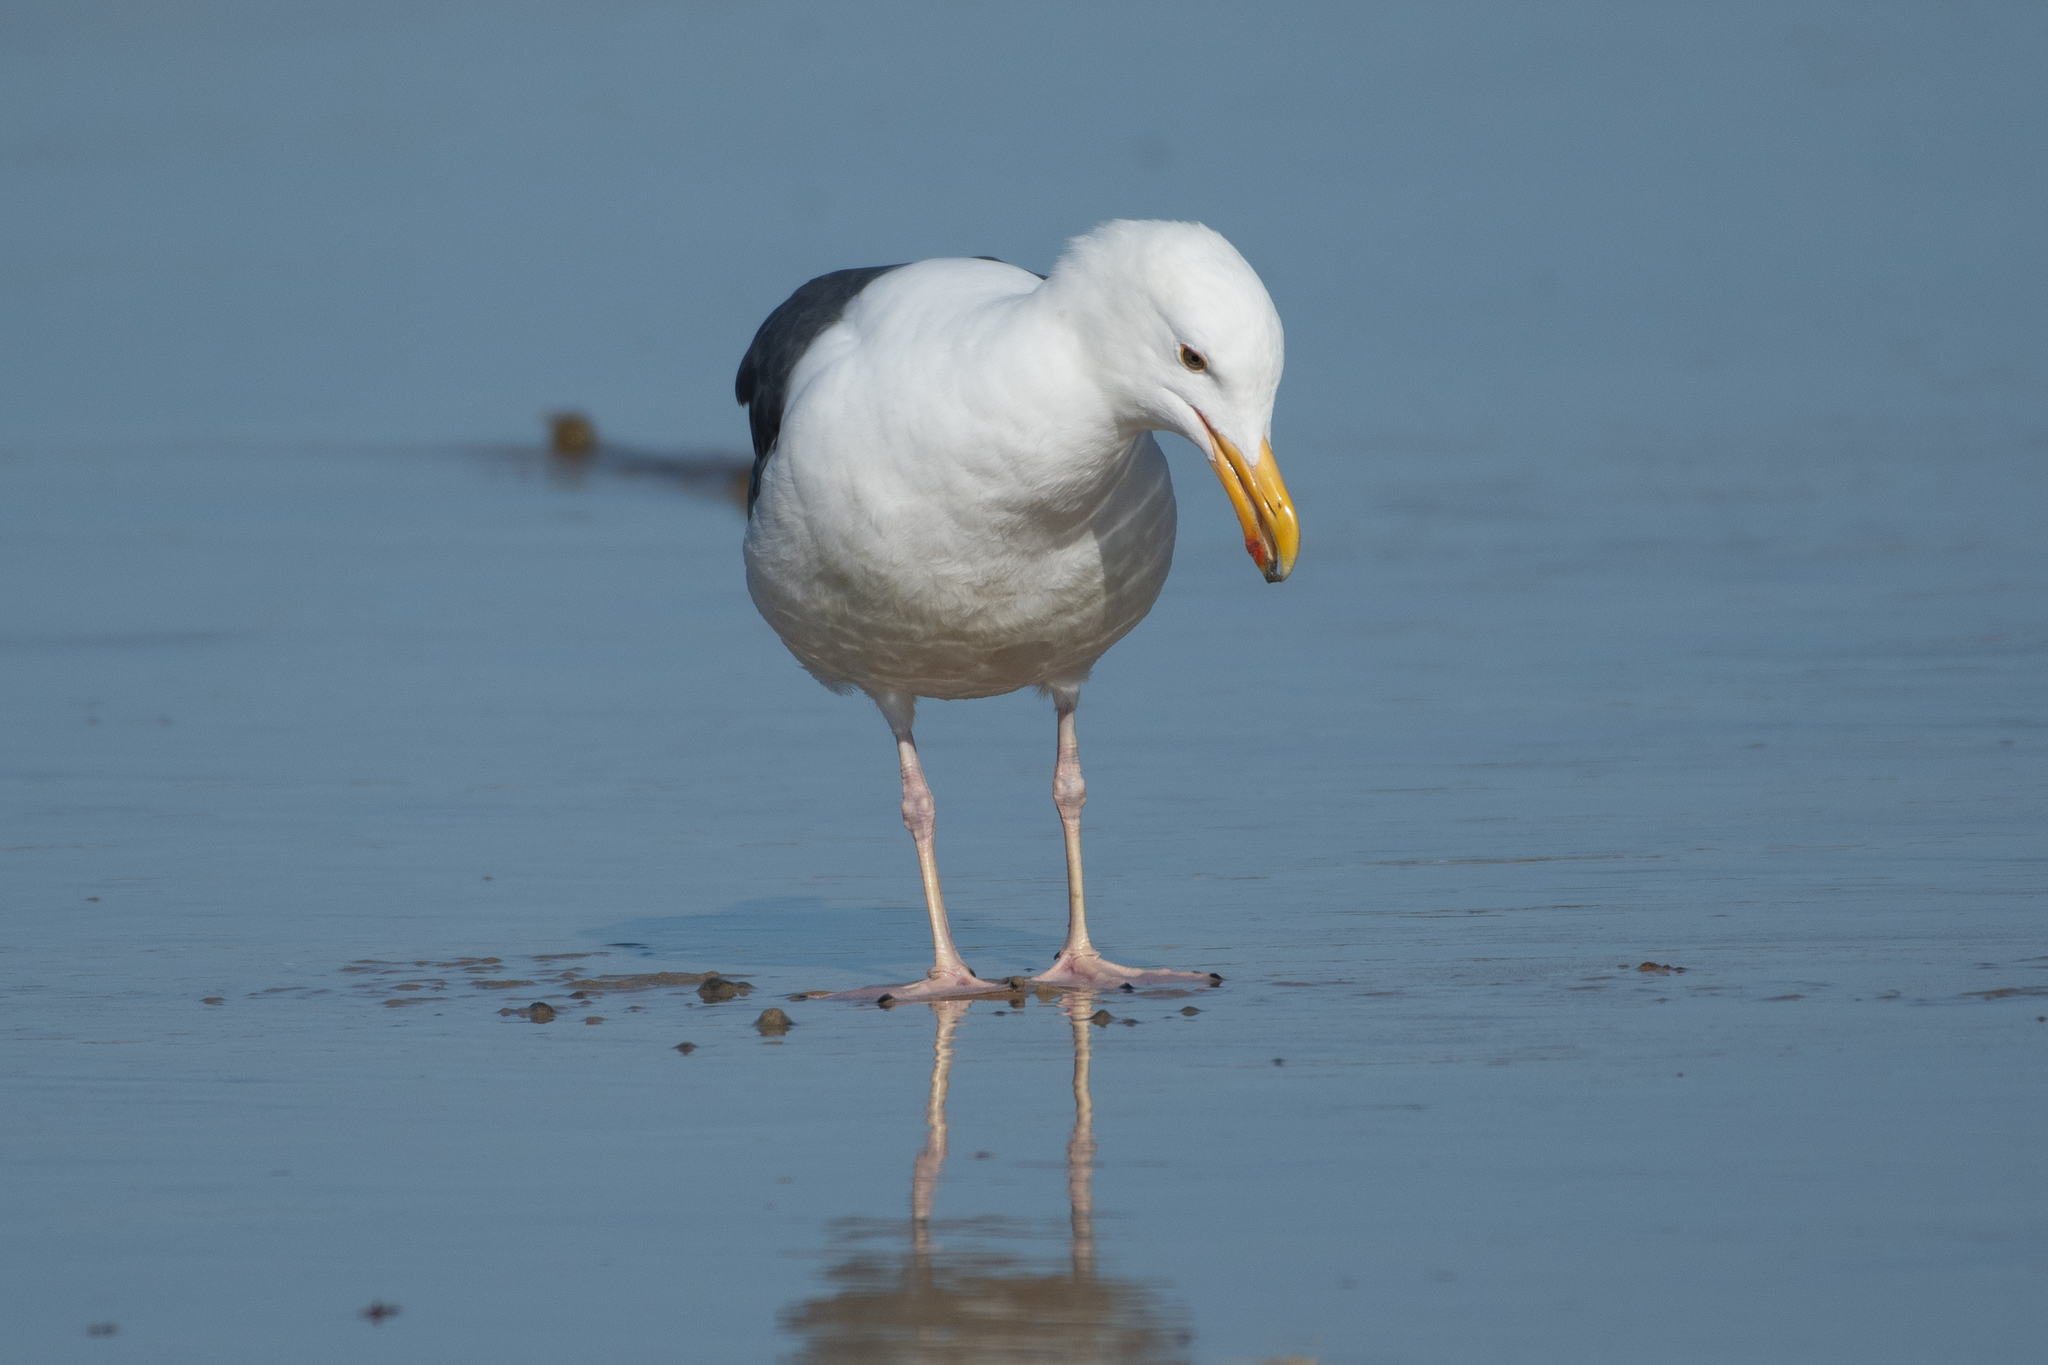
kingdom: Animalia
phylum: Chordata
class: Aves
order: Charadriiformes
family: Laridae
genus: Larus
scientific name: Larus occidentalis
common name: Western gull
